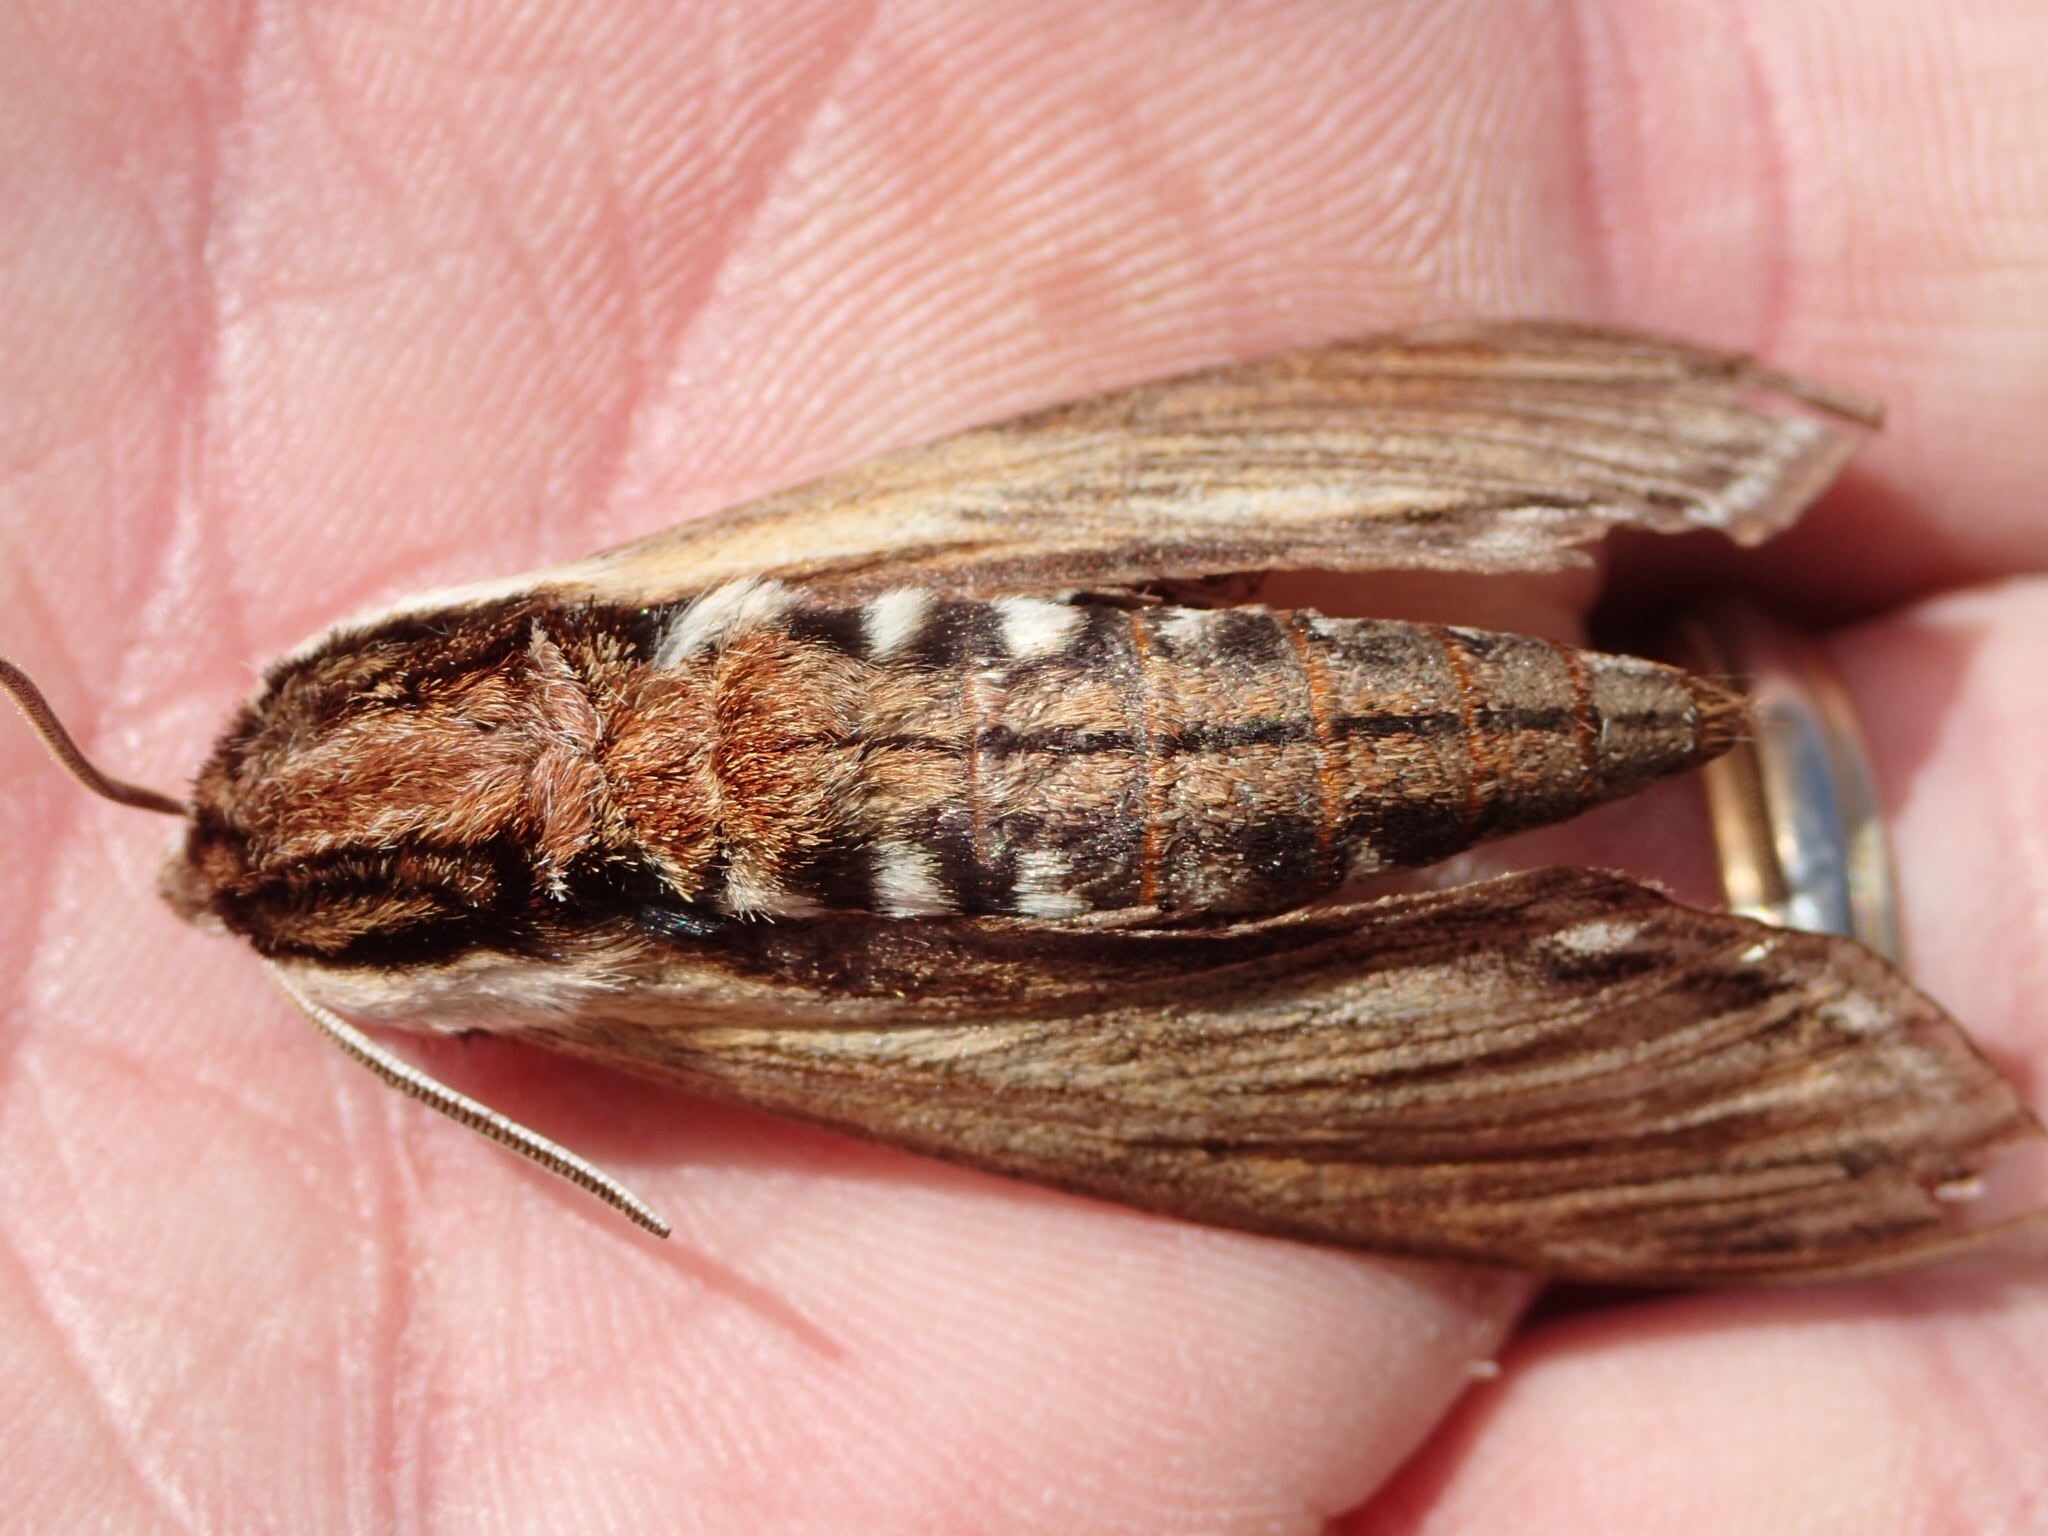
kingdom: Animalia
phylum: Arthropoda
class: Insecta
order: Lepidoptera
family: Sphingidae
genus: Sphinx
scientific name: Sphinx kalmiae
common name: Laurel sphinx
